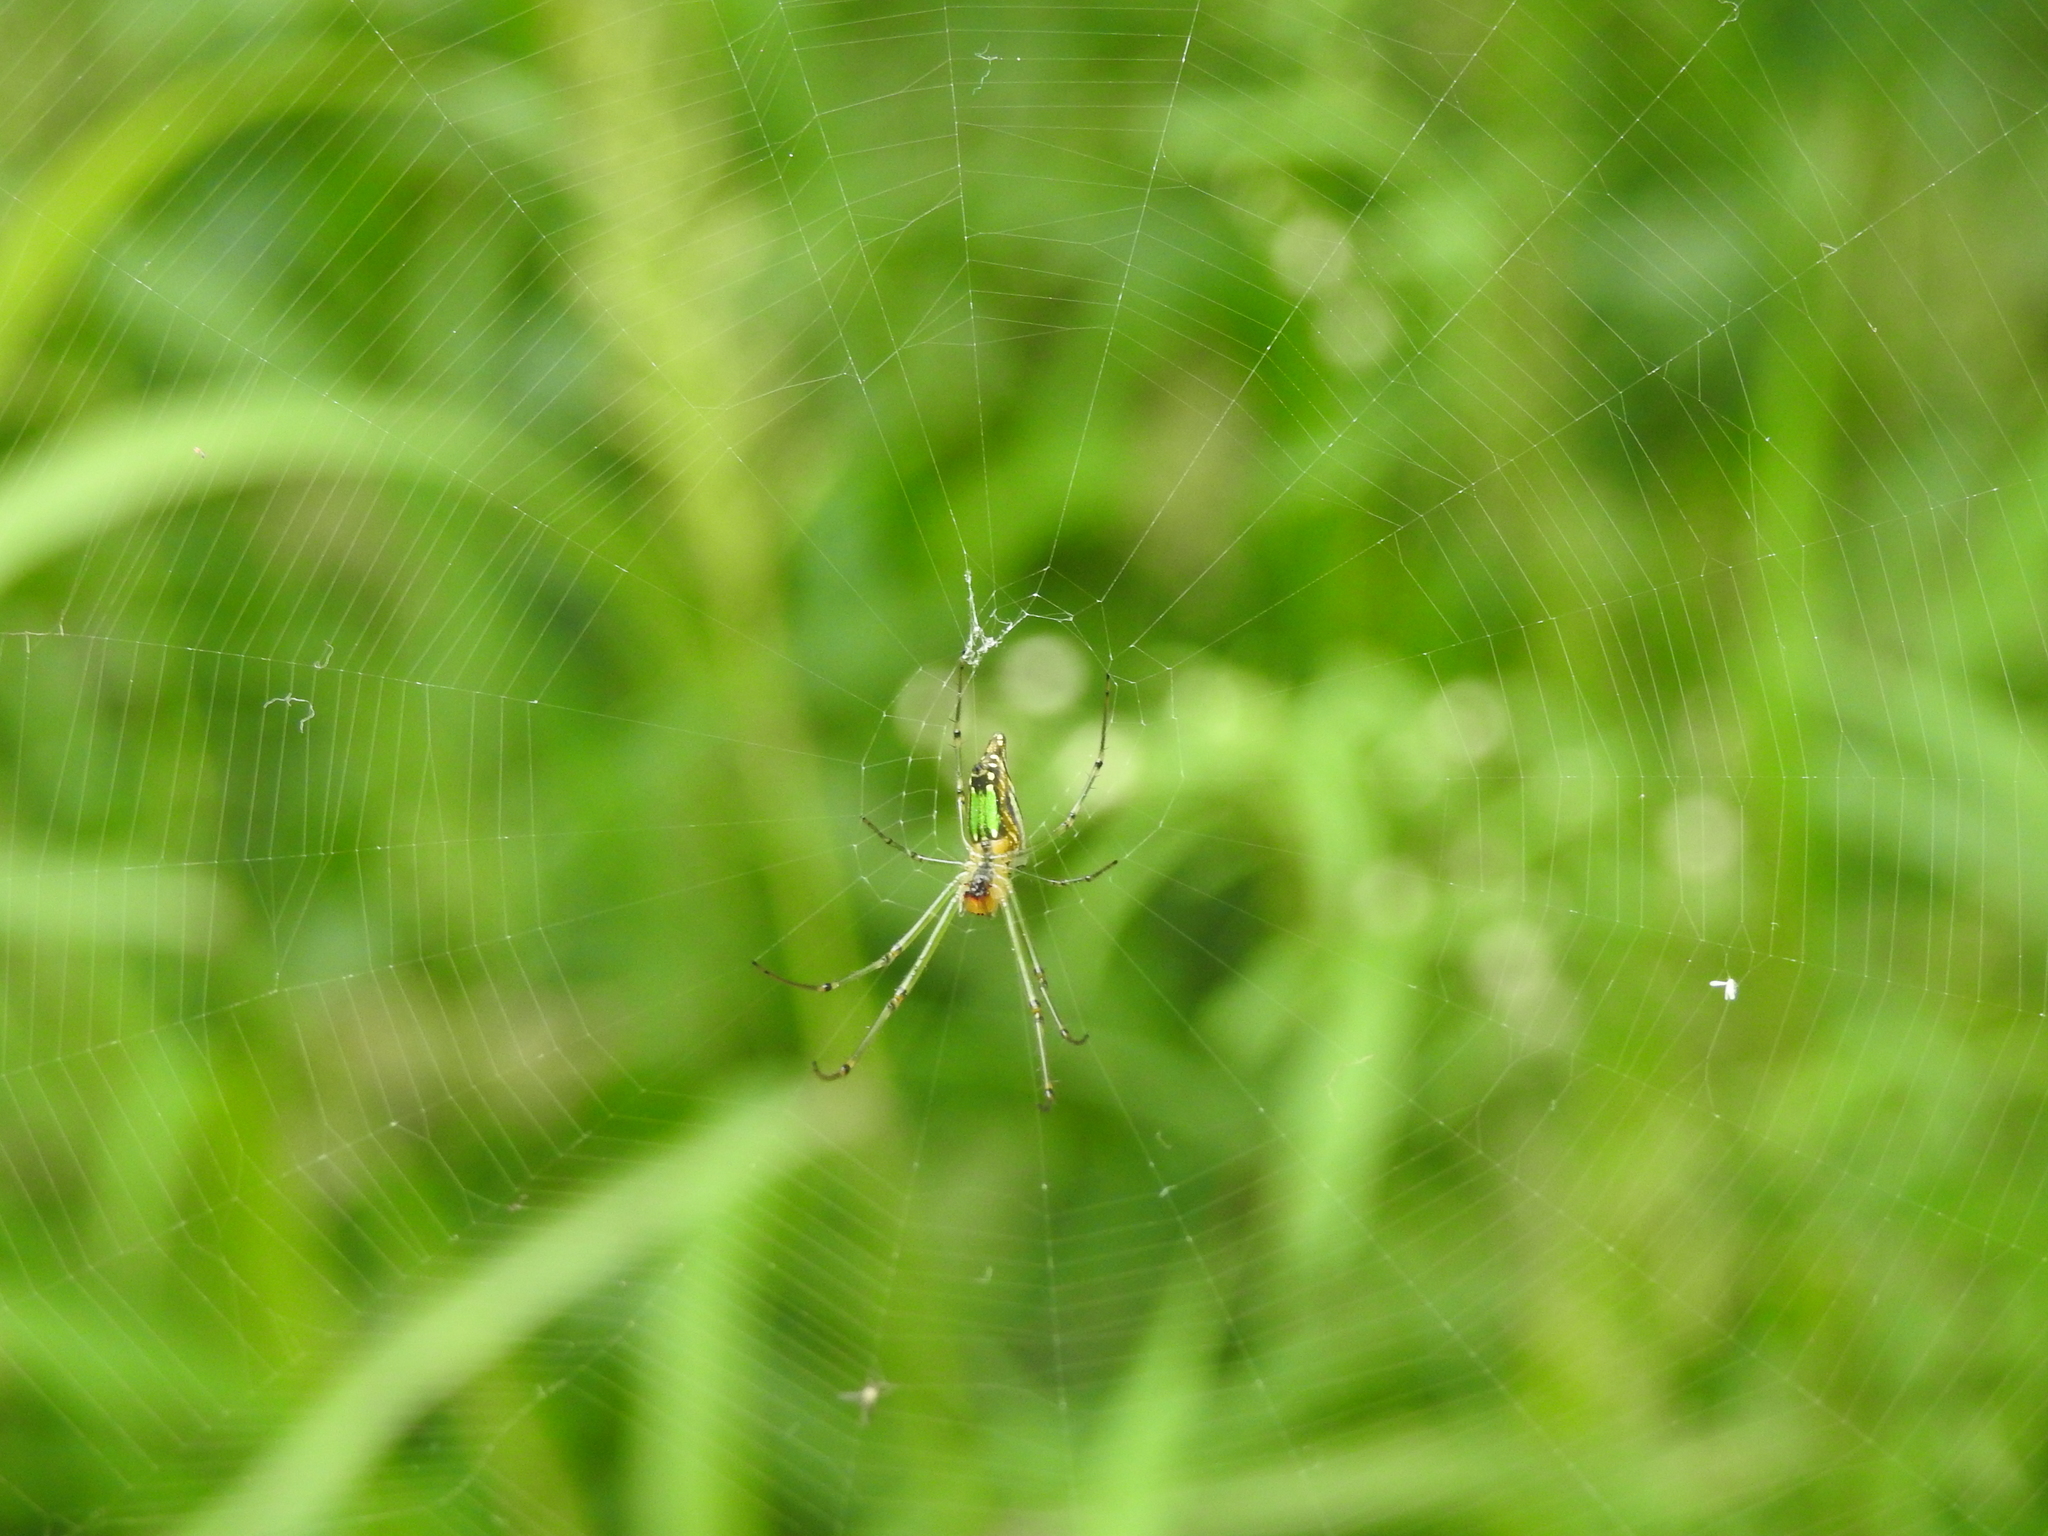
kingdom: Animalia
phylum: Arthropoda
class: Arachnida
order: Araneae
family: Tetragnathidae
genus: Leucauge
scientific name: Leucauge decorata
